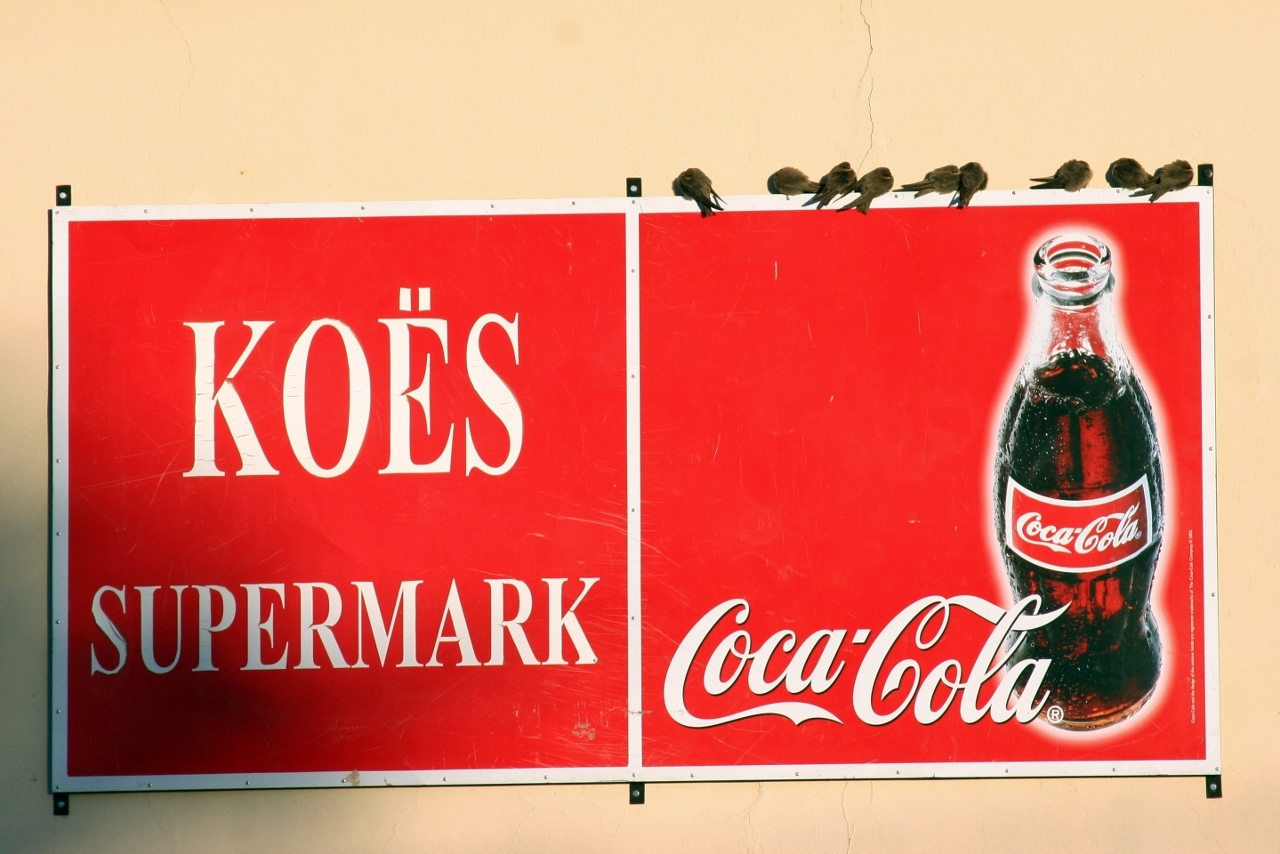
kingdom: Animalia
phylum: Chordata
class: Aves
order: Passeriformes
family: Hirundinidae
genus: Ptyonoprogne
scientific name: Ptyonoprogne fuligula
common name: Rock martin
